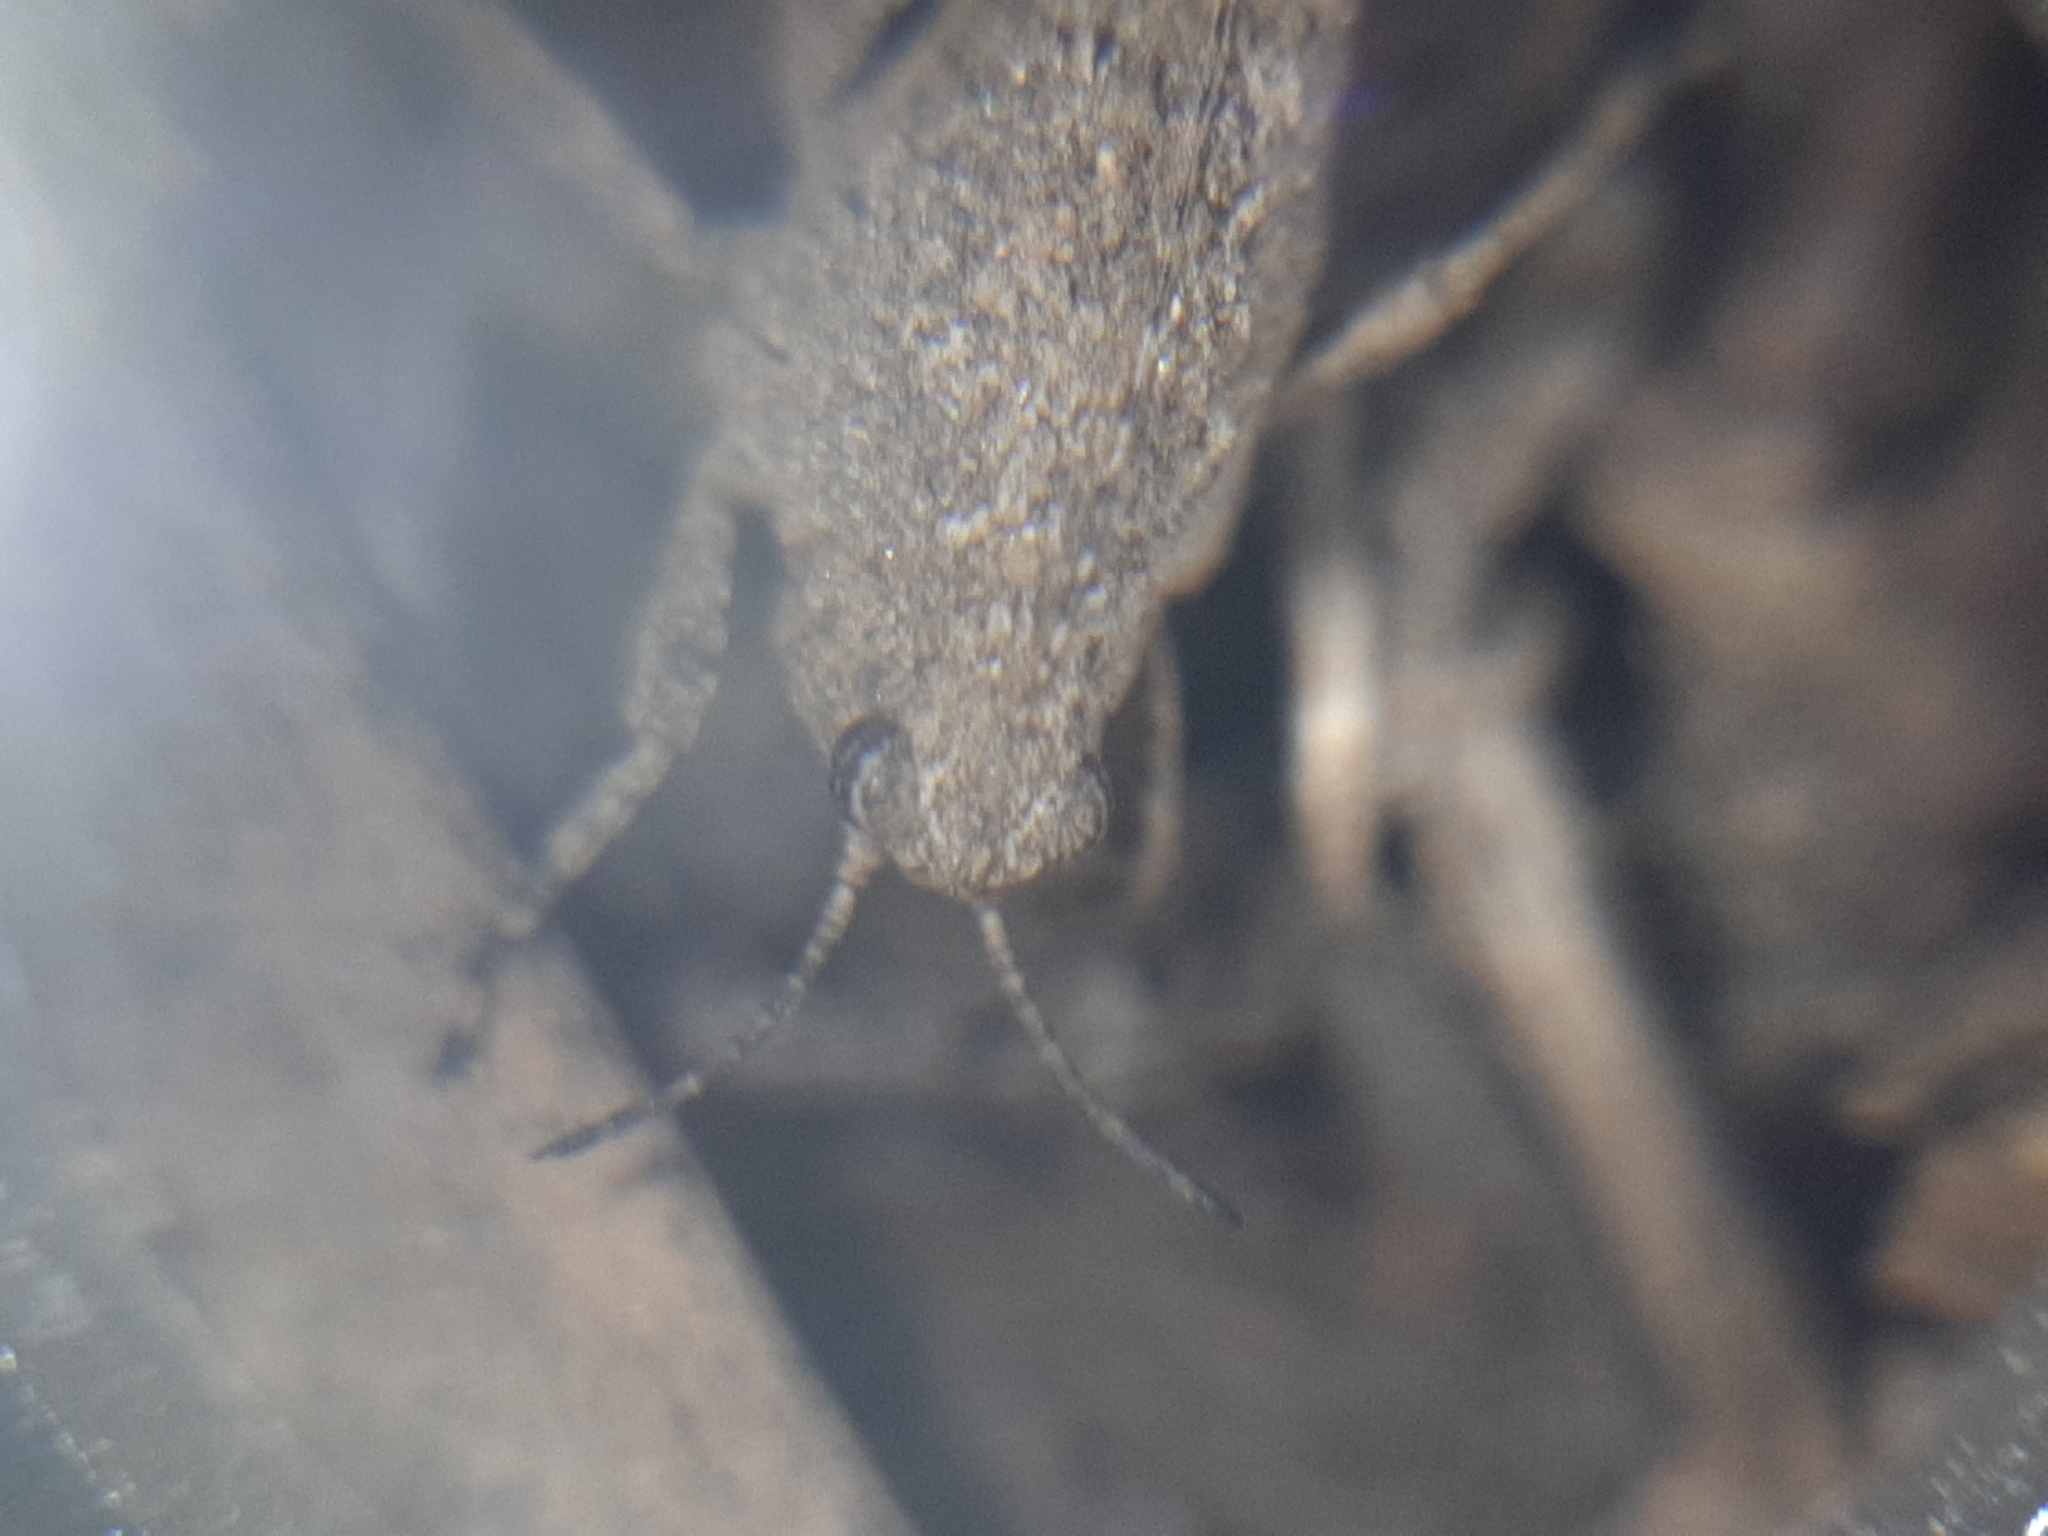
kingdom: Animalia
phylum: Arthropoda
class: Insecta
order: Orthoptera
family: Tetrigidae
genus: Tetrix
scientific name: Tetrix tenuicornis
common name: Long-horned groundhopper
